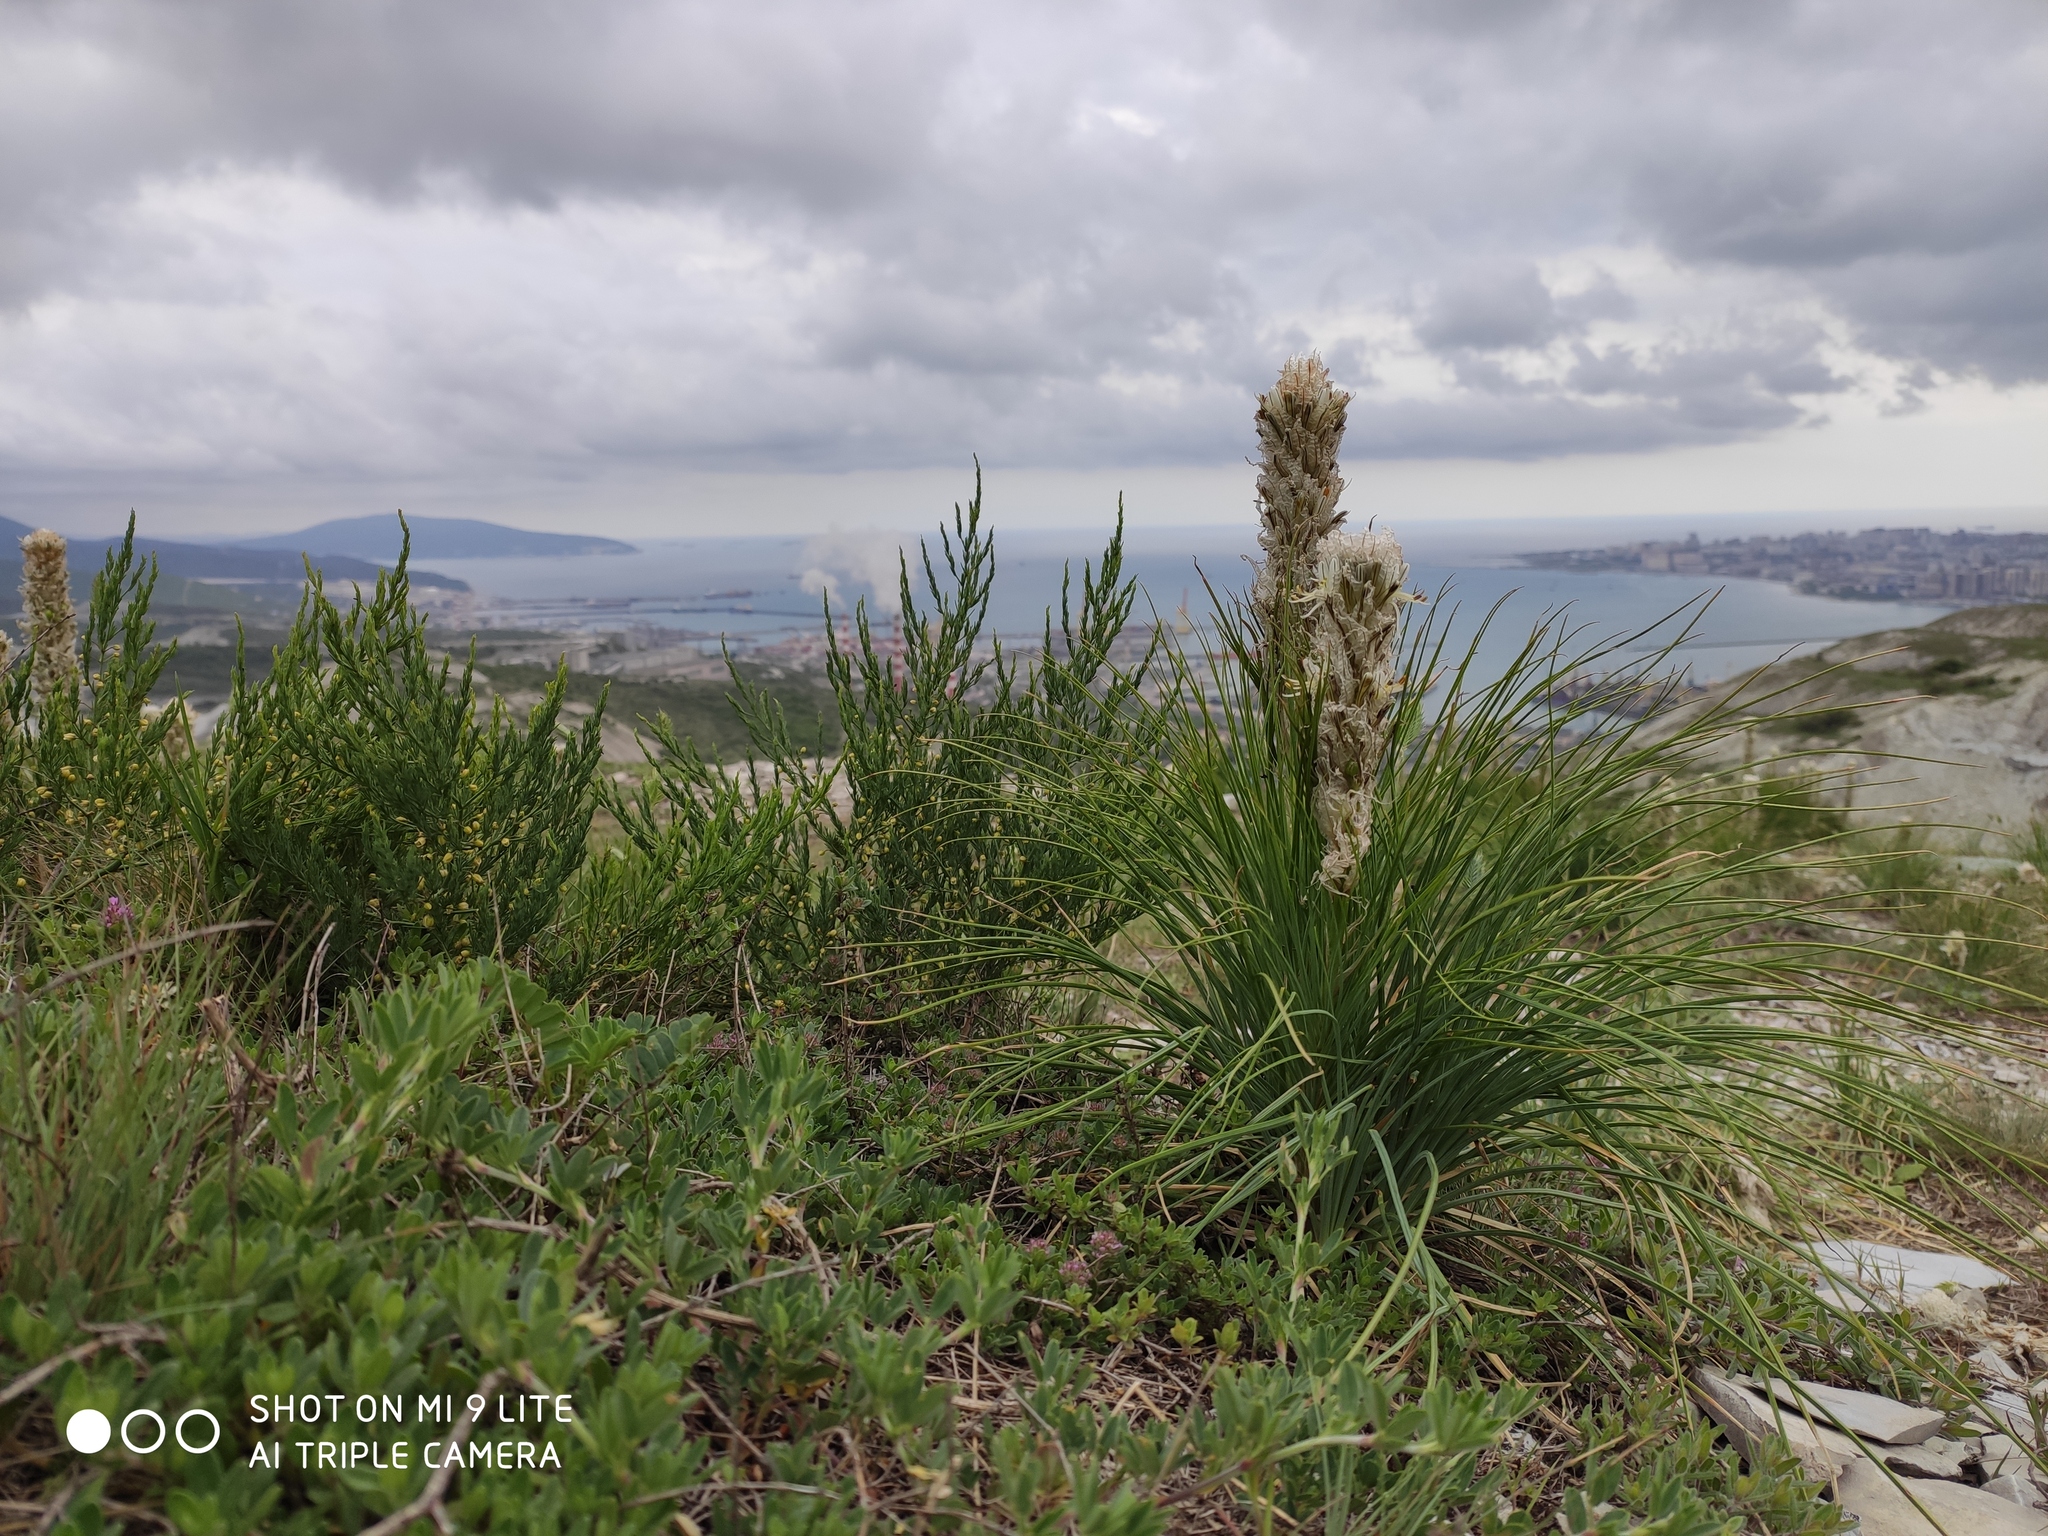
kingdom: Plantae
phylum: Tracheophyta
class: Liliopsida
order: Asparagales
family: Asphodelaceae
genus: Asphodeline
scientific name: Asphodeline taurica
